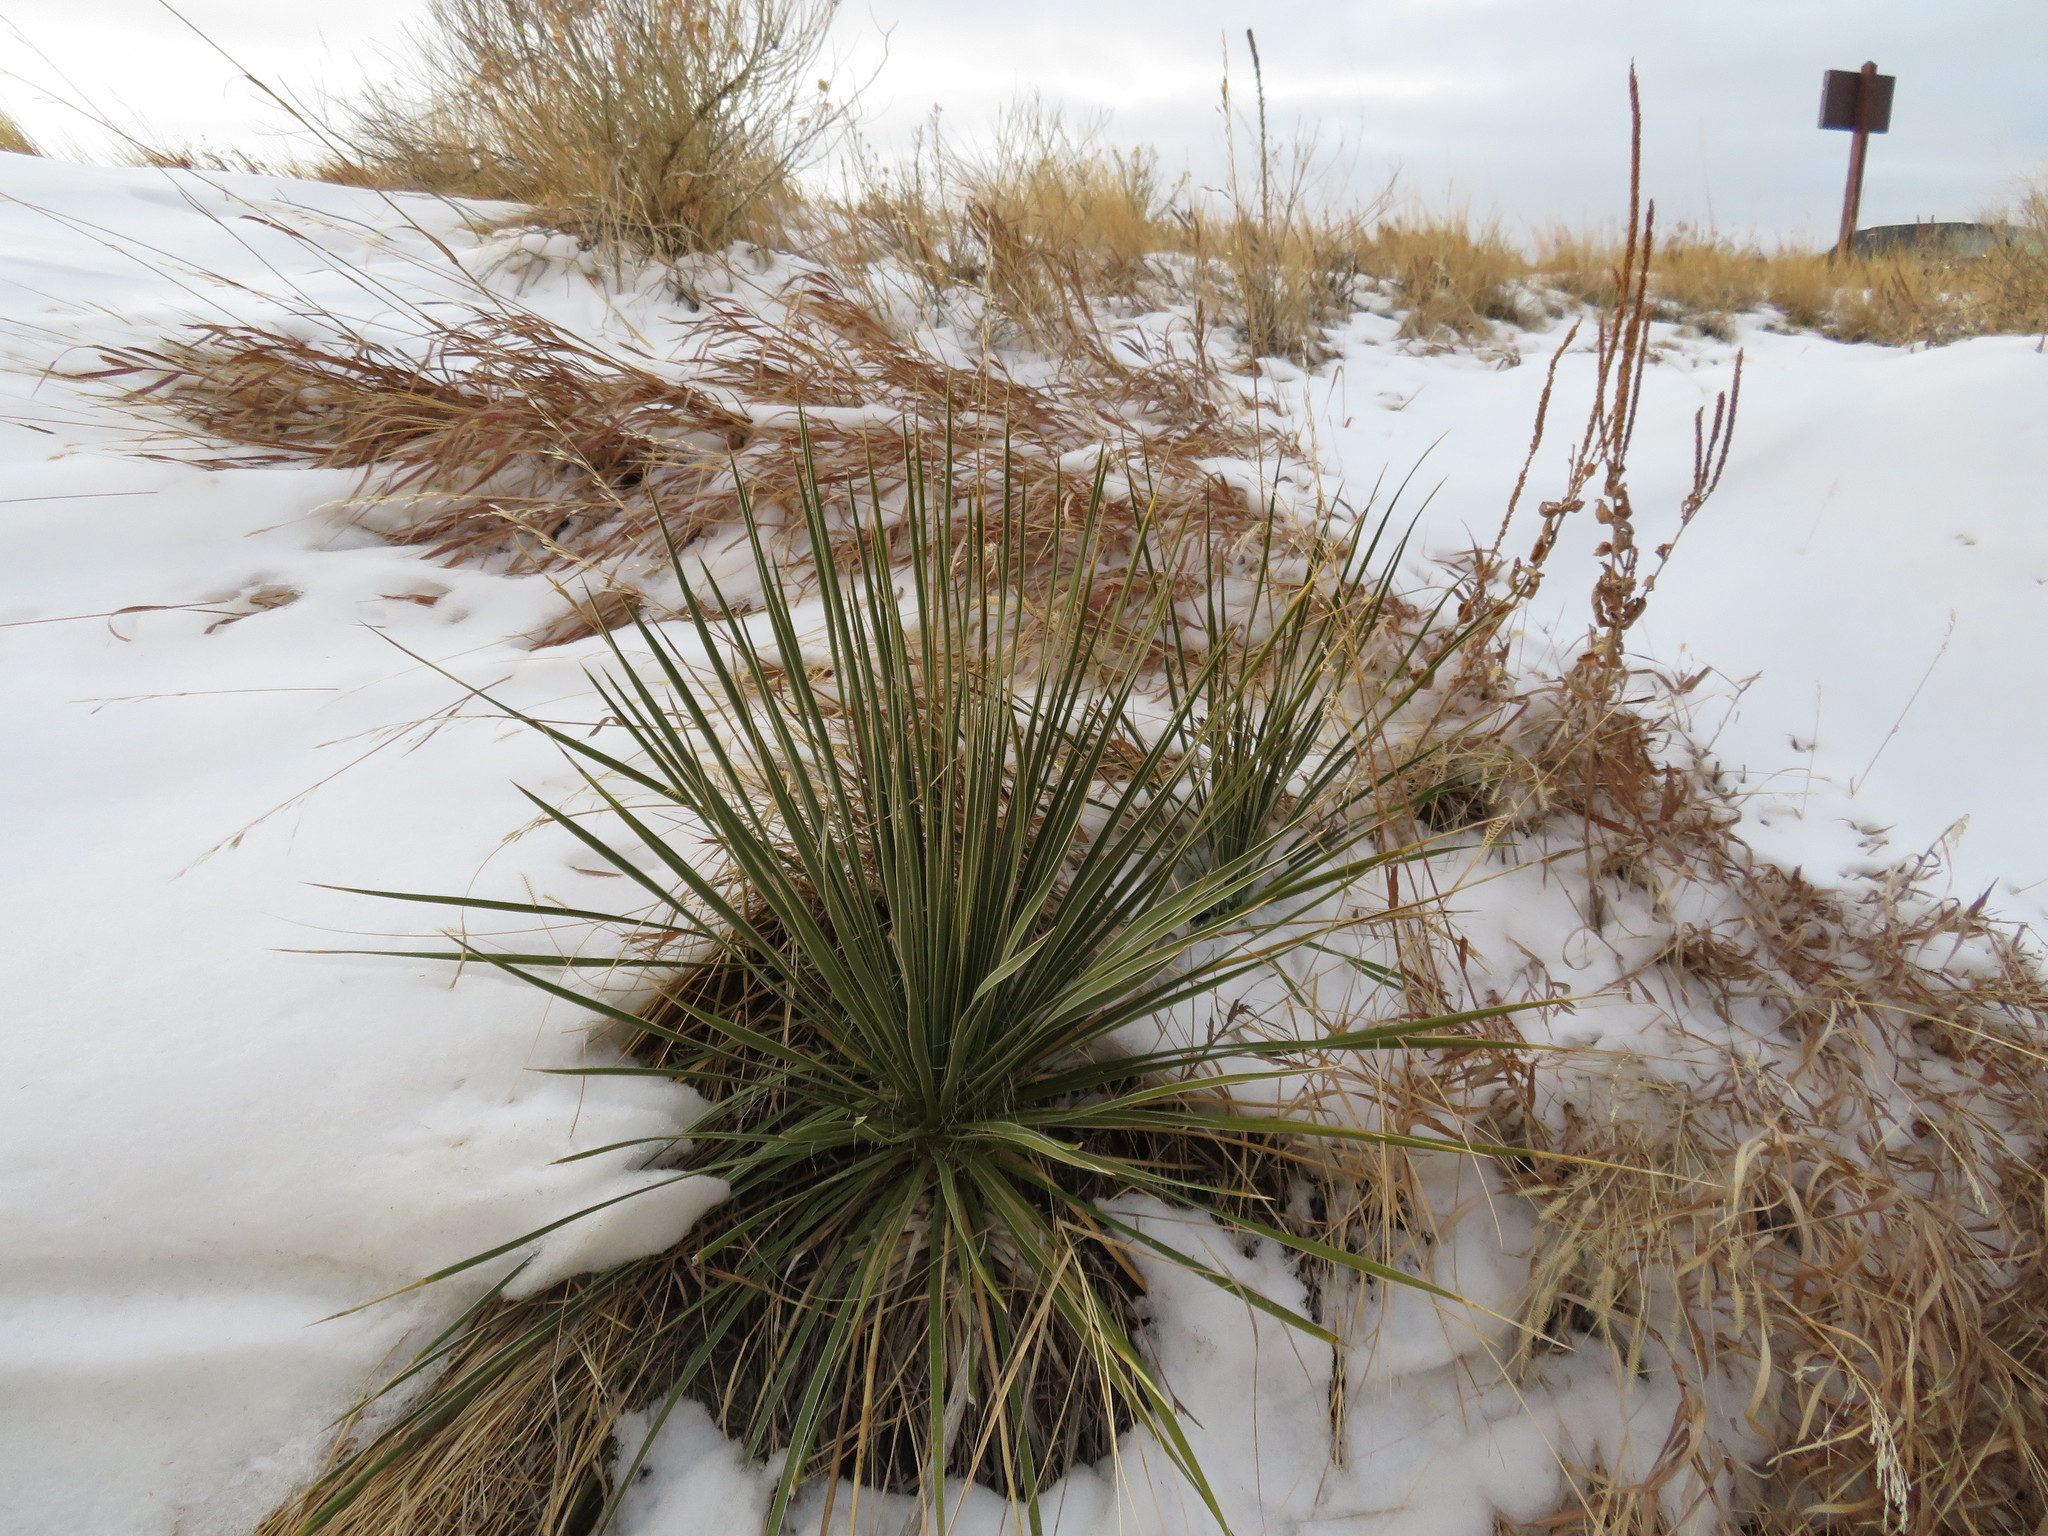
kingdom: Plantae
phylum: Tracheophyta
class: Liliopsida
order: Asparagales
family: Asparagaceae
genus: Yucca
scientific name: Yucca glauca
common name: Great plains yucca
